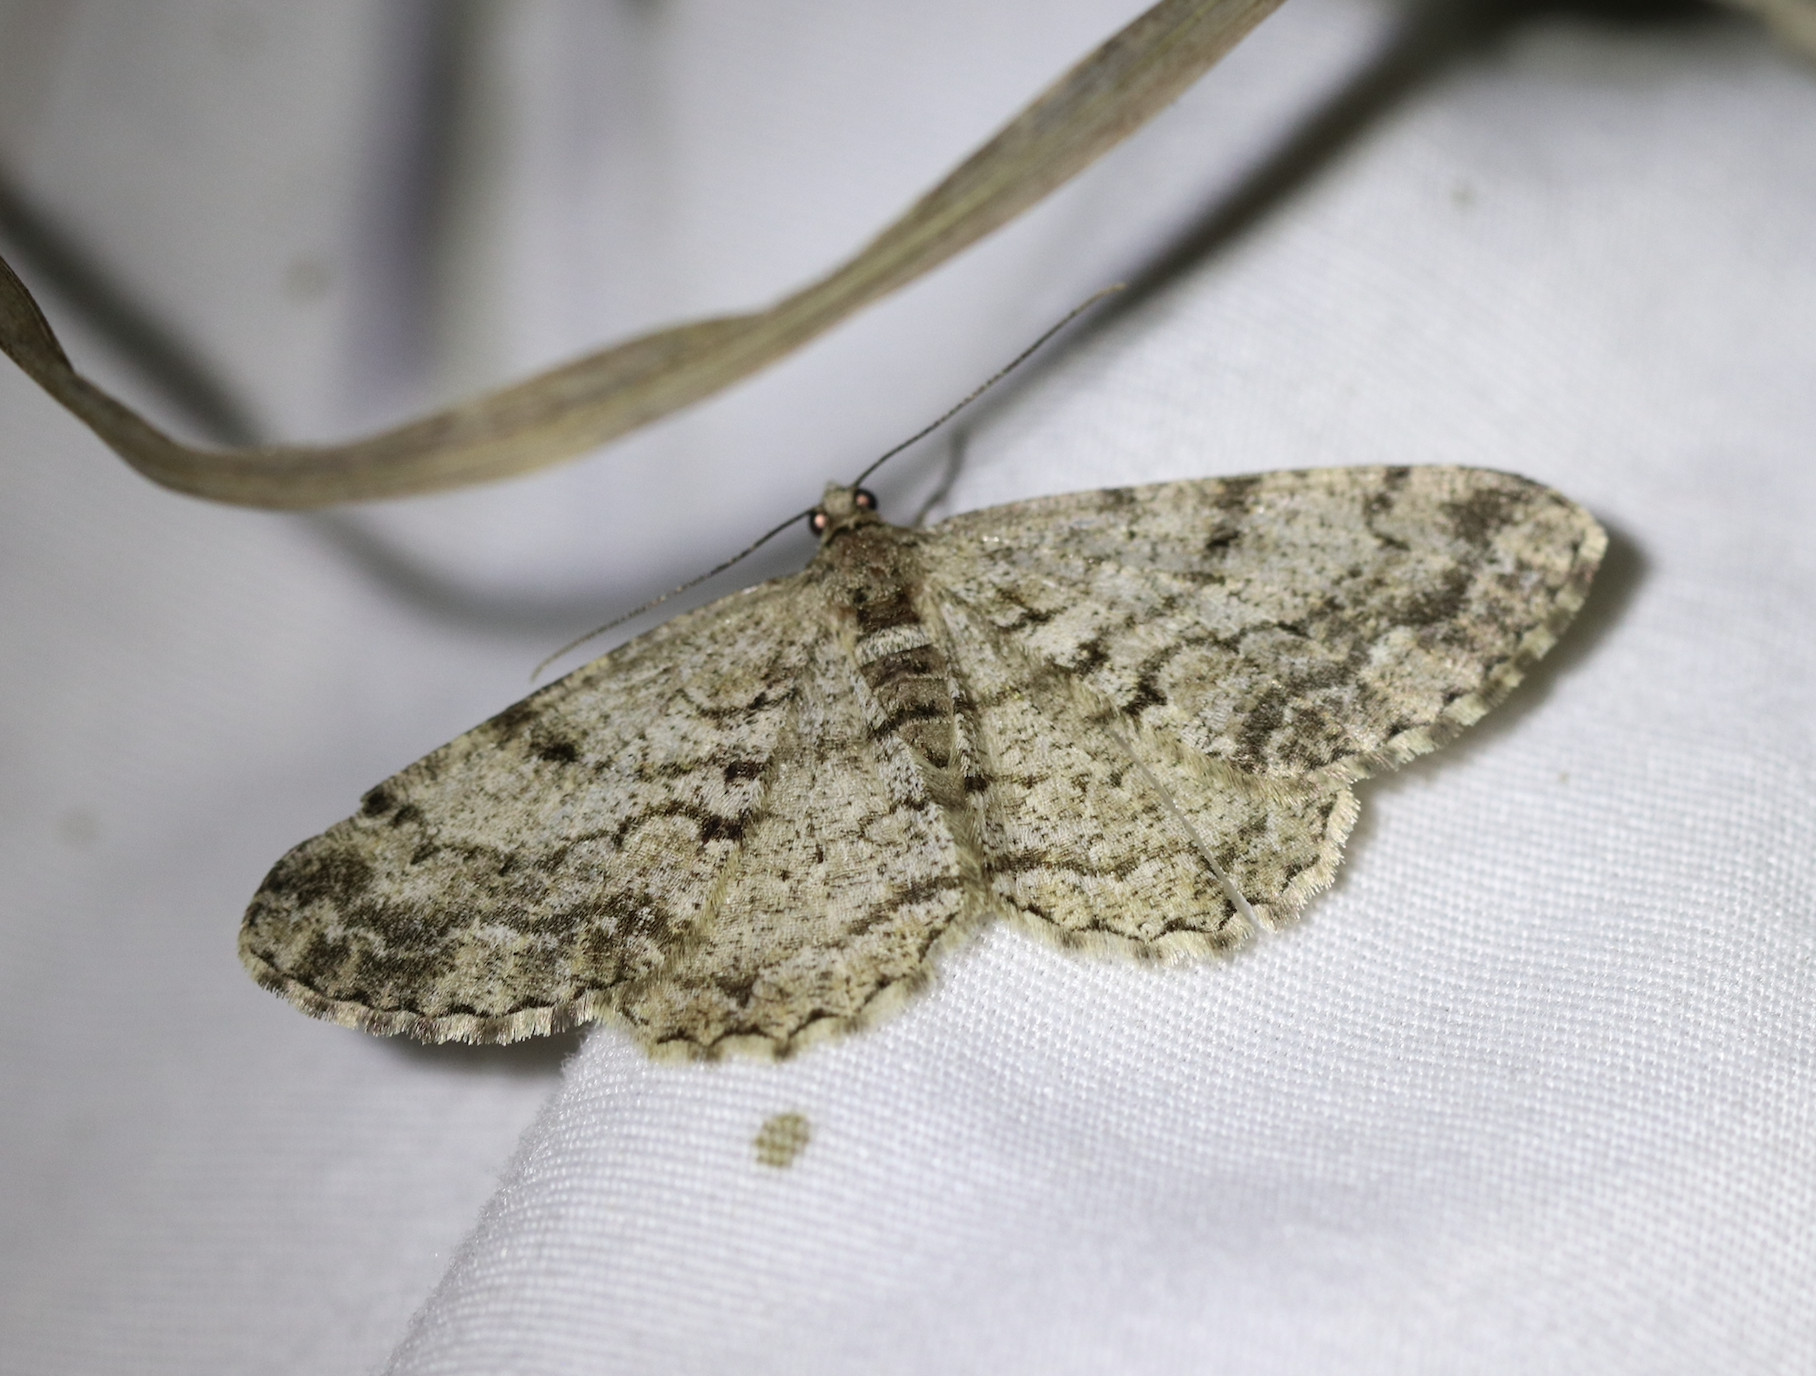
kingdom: Animalia
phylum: Arthropoda
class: Insecta
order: Lepidoptera
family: Geometridae
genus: Peribatodes
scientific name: Peribatodes secundaria
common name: Feathered beauty
